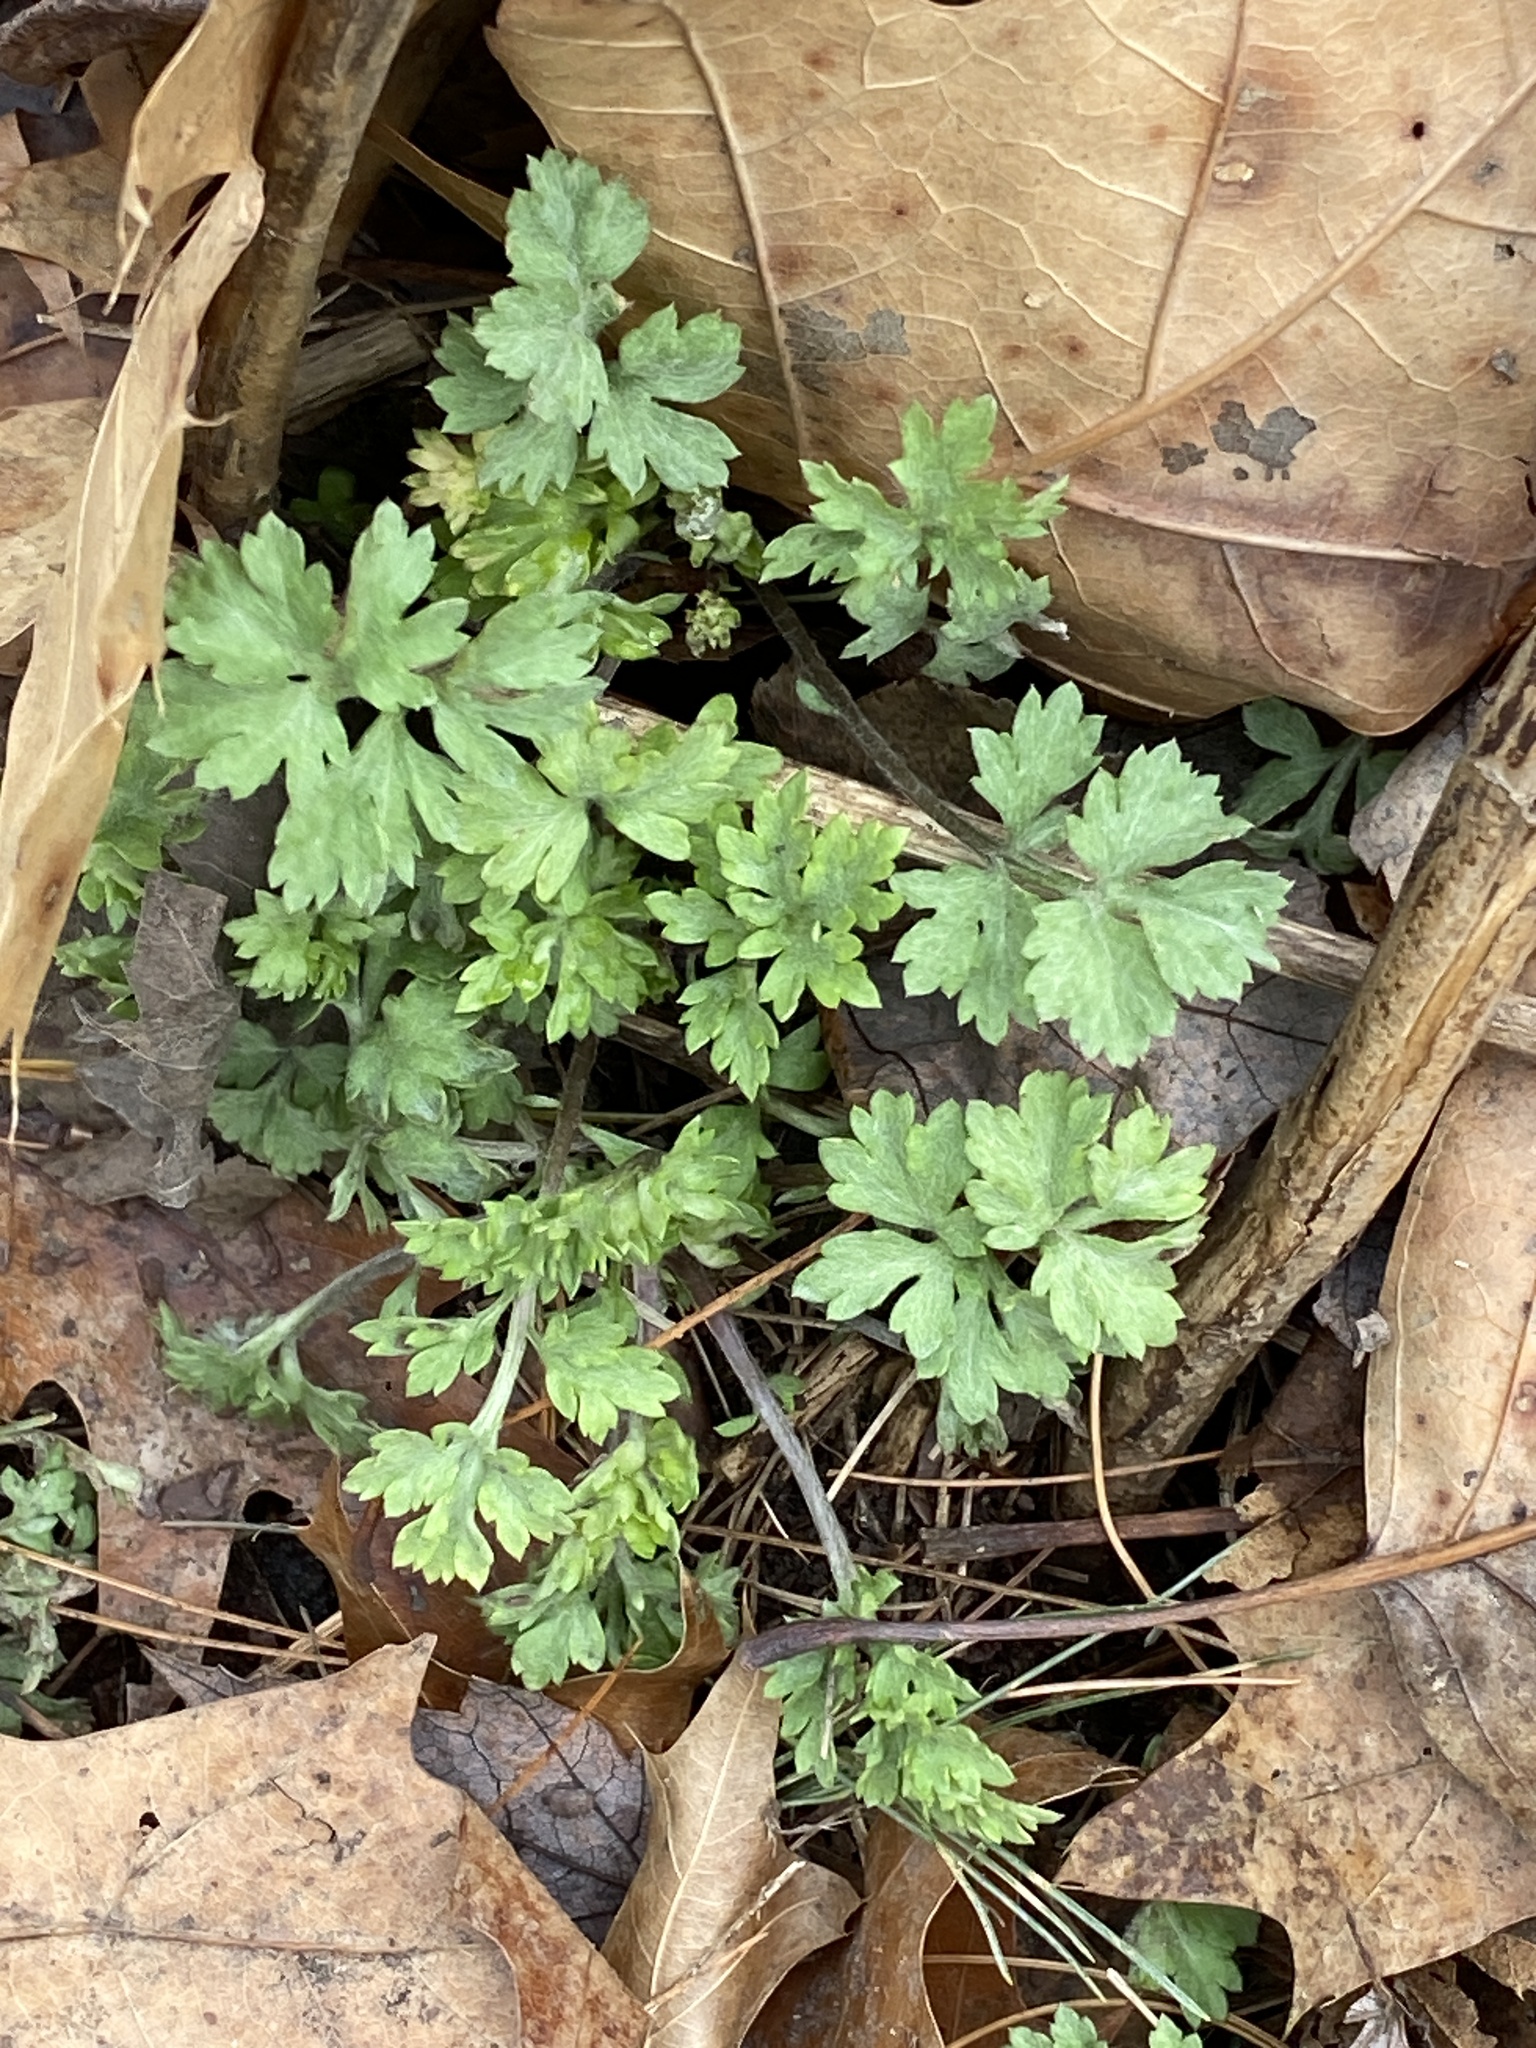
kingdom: Plantae
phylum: Tracheophyta
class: Magnoliopsida
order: Asterales
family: Asteraceae
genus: Artemisia
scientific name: Artemisia vulgaris
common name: Mugwort
